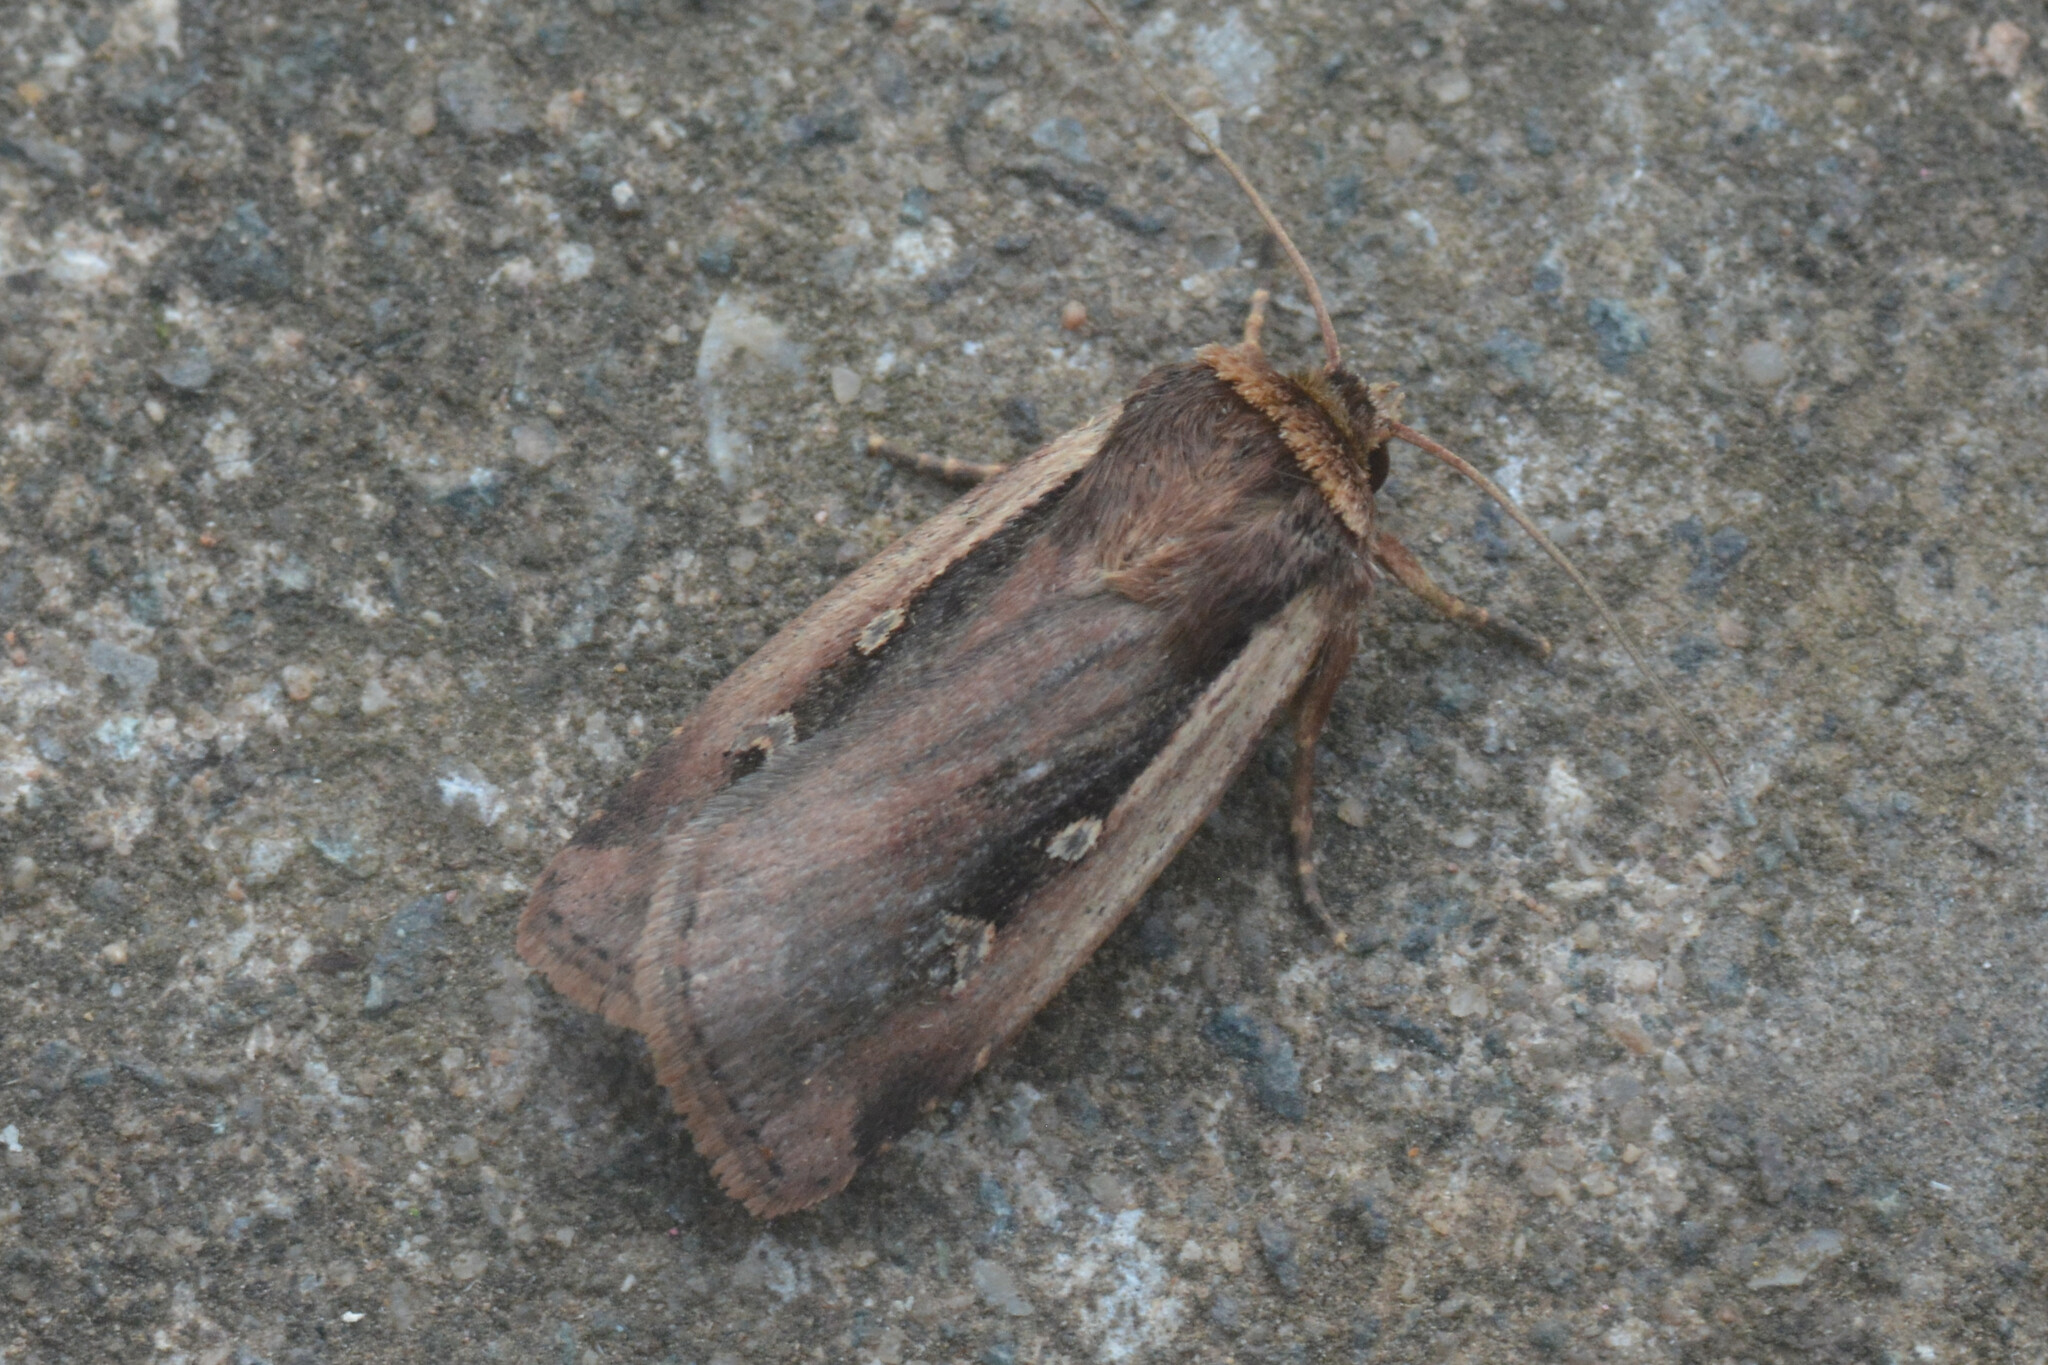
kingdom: Animalia
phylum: Arthropoda
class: Insecta
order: Lepidoptera
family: Noctuidae
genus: Ochropleura
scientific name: Ochropleura plecta
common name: Flame shoulder
